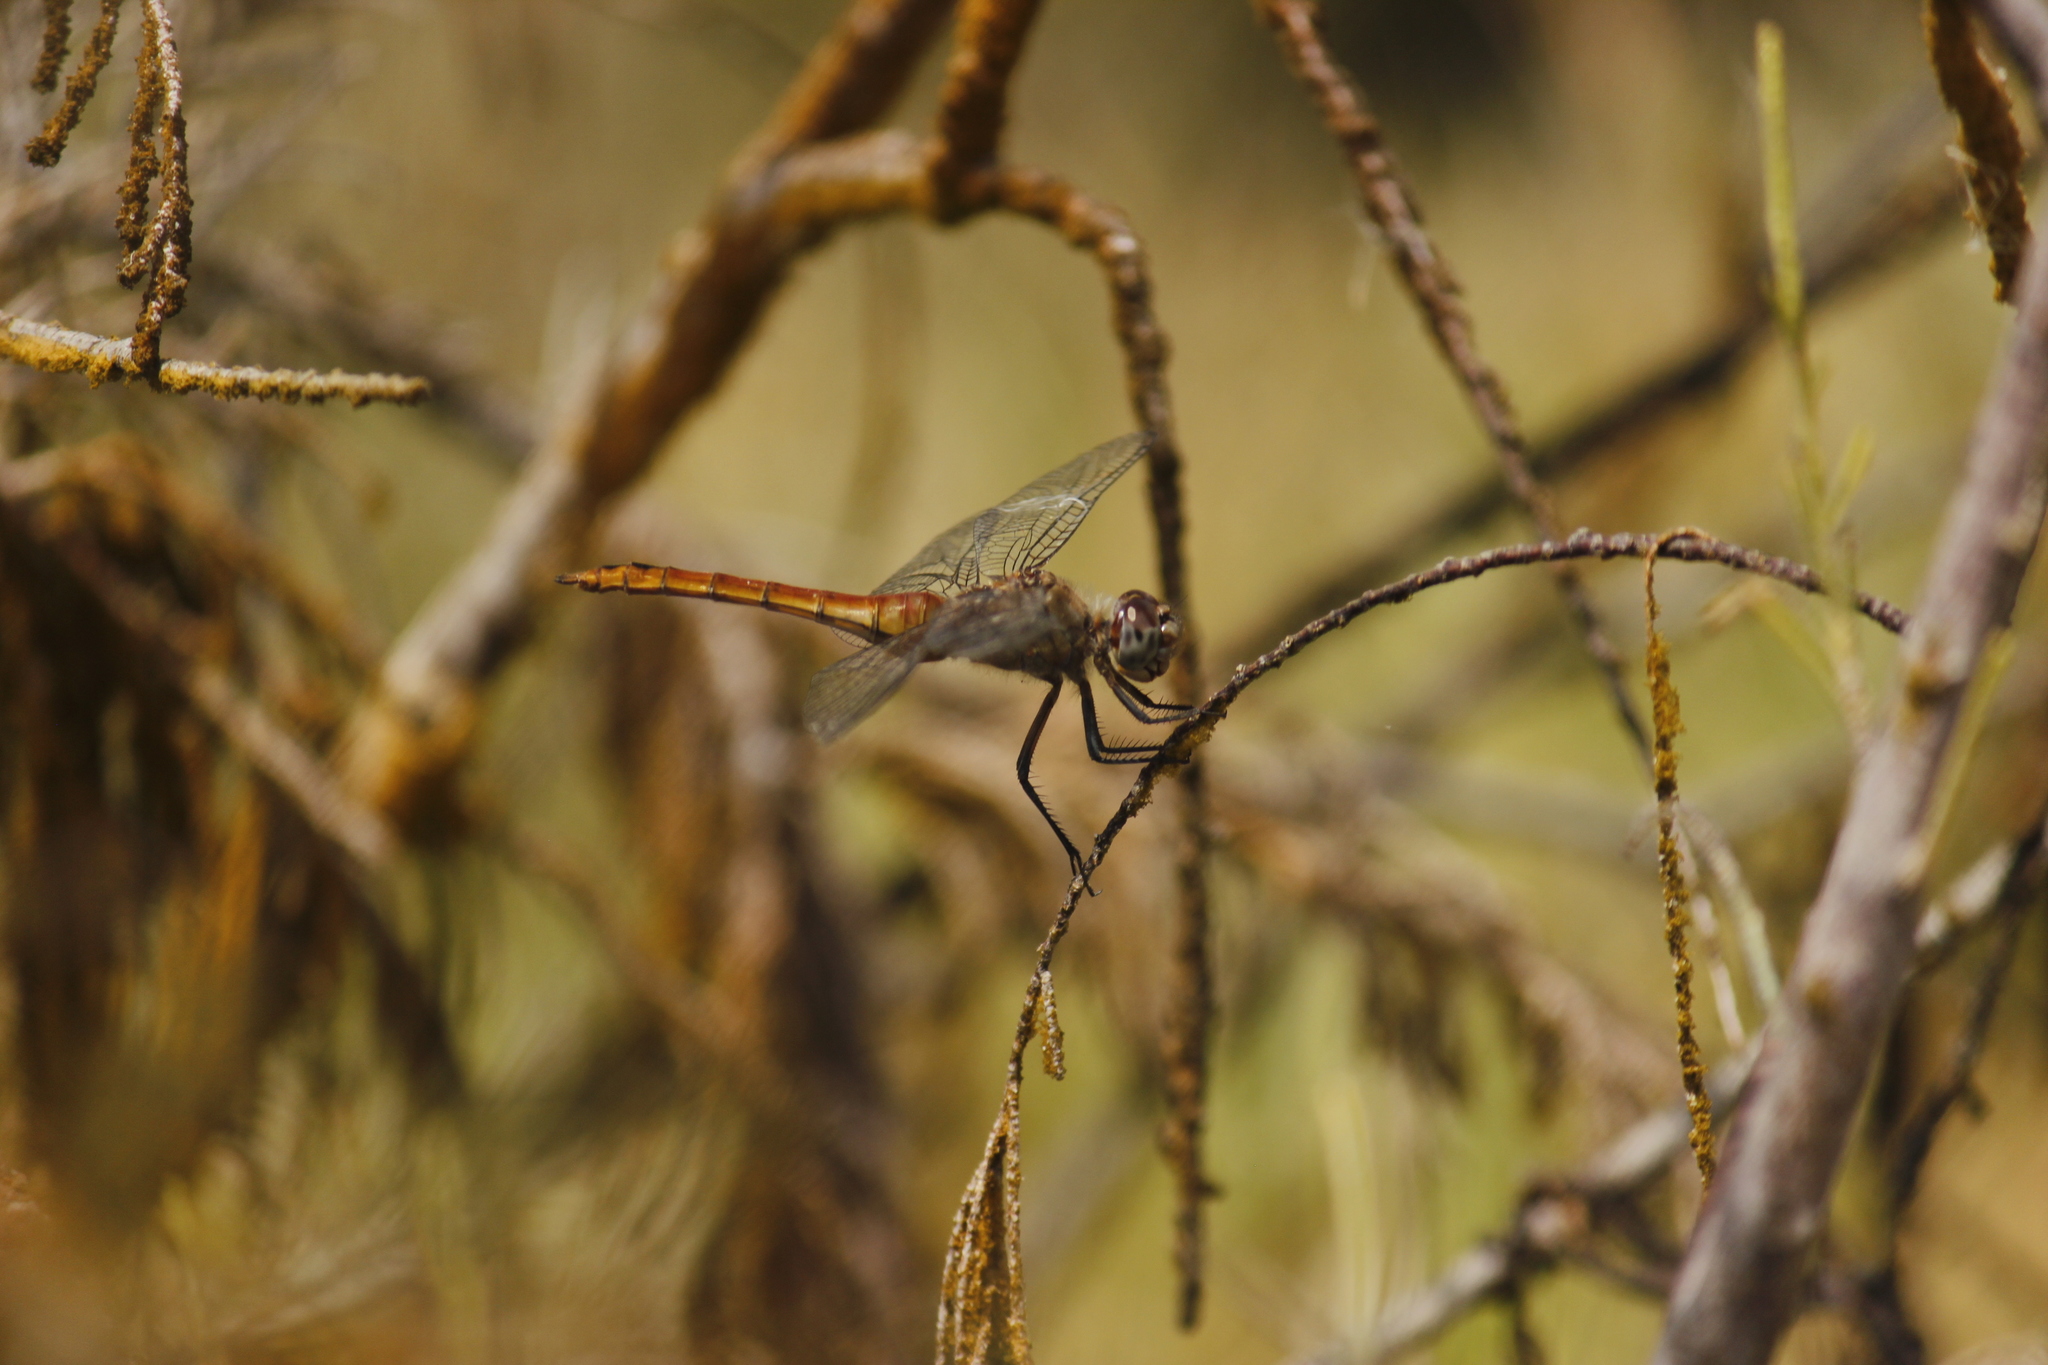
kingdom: Animalia
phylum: Arthropoda
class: Insecta
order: Odonata
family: Libellulidae
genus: Brachymesia
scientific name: Brachymesia furcata
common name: Red-taled pennant
